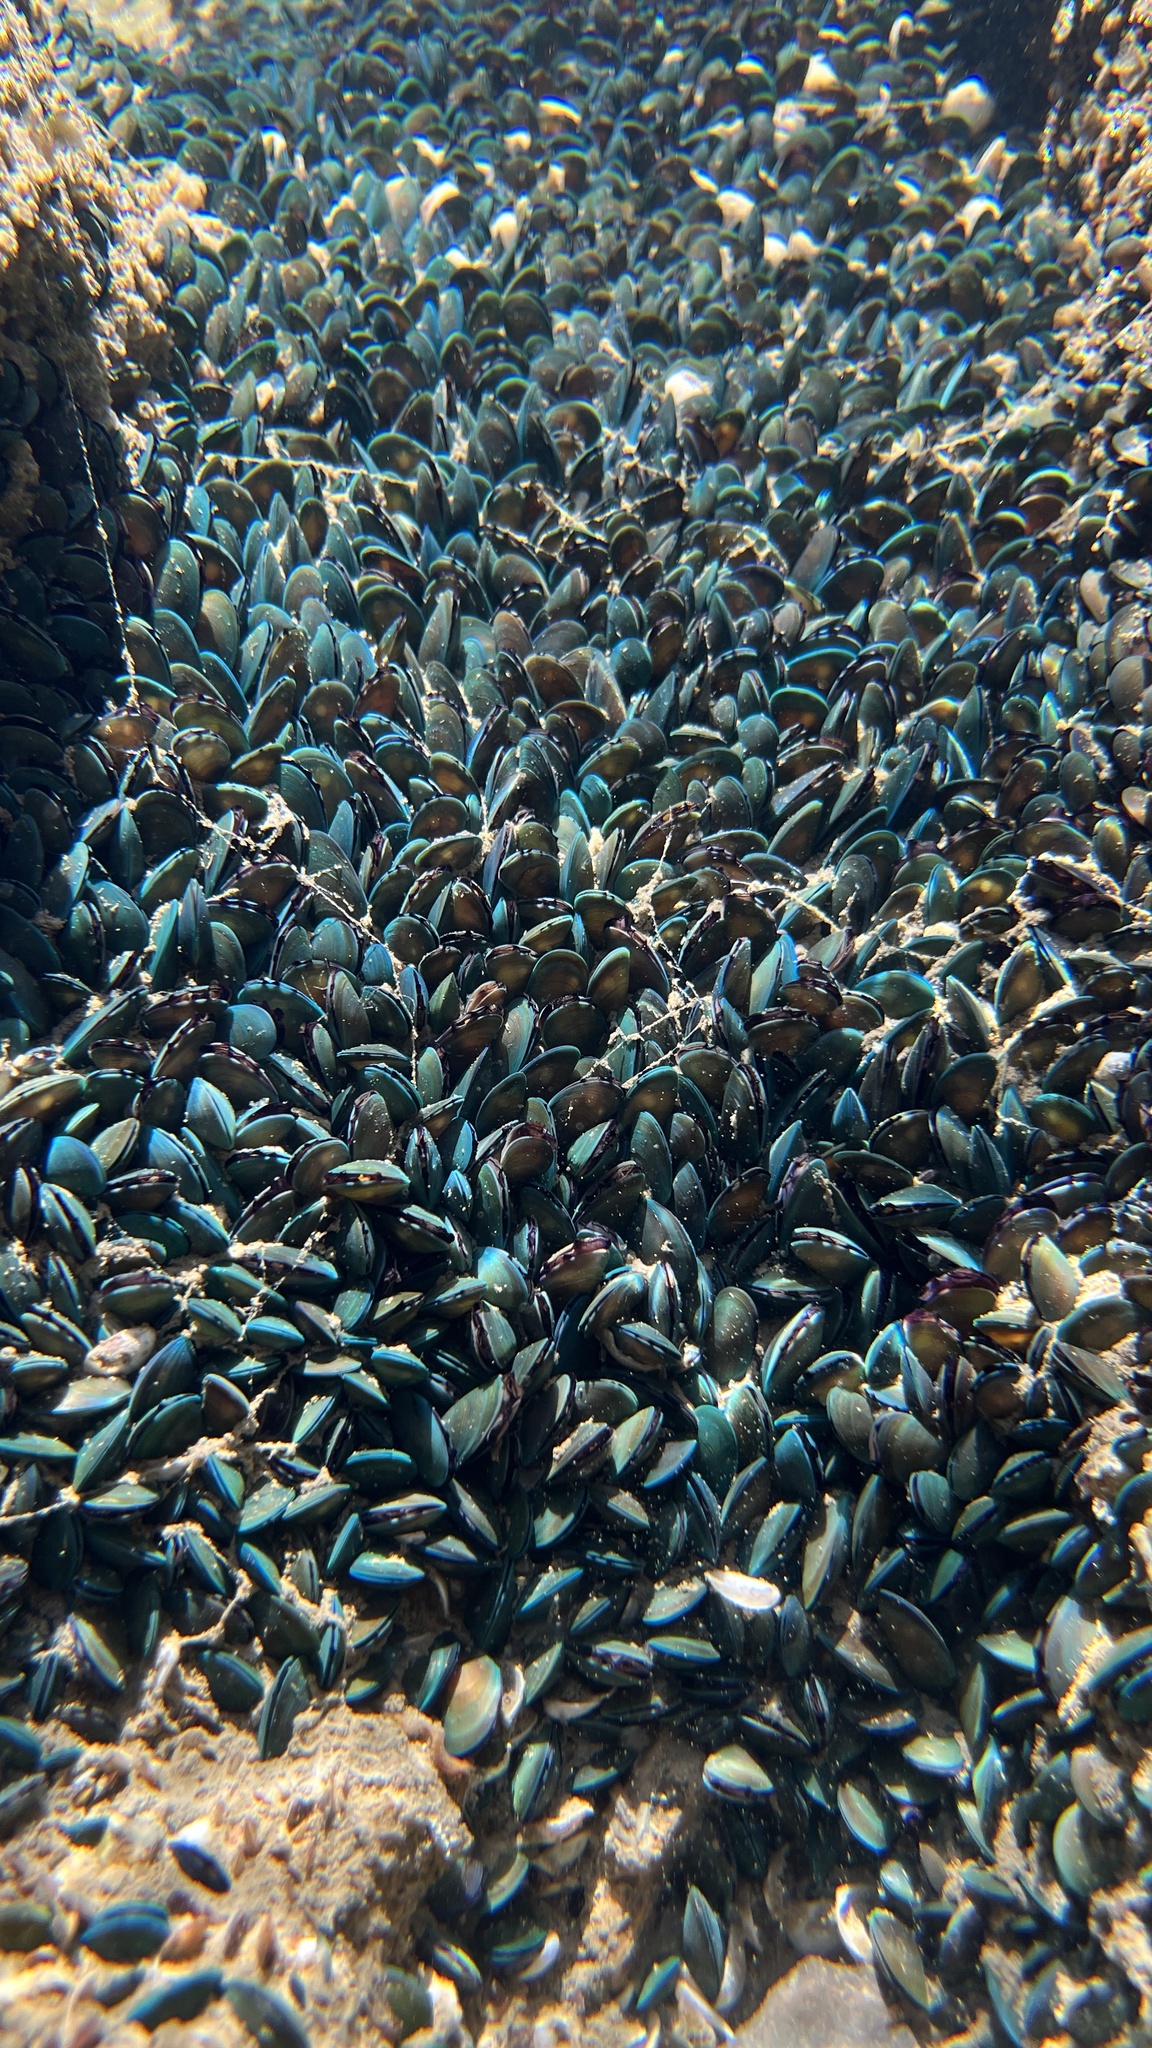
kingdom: Animalia
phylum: Mollusca
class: Bivalvia
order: Mytilida
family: Mytilidae
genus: Perna
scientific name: Perna viridis
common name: Green mussel
